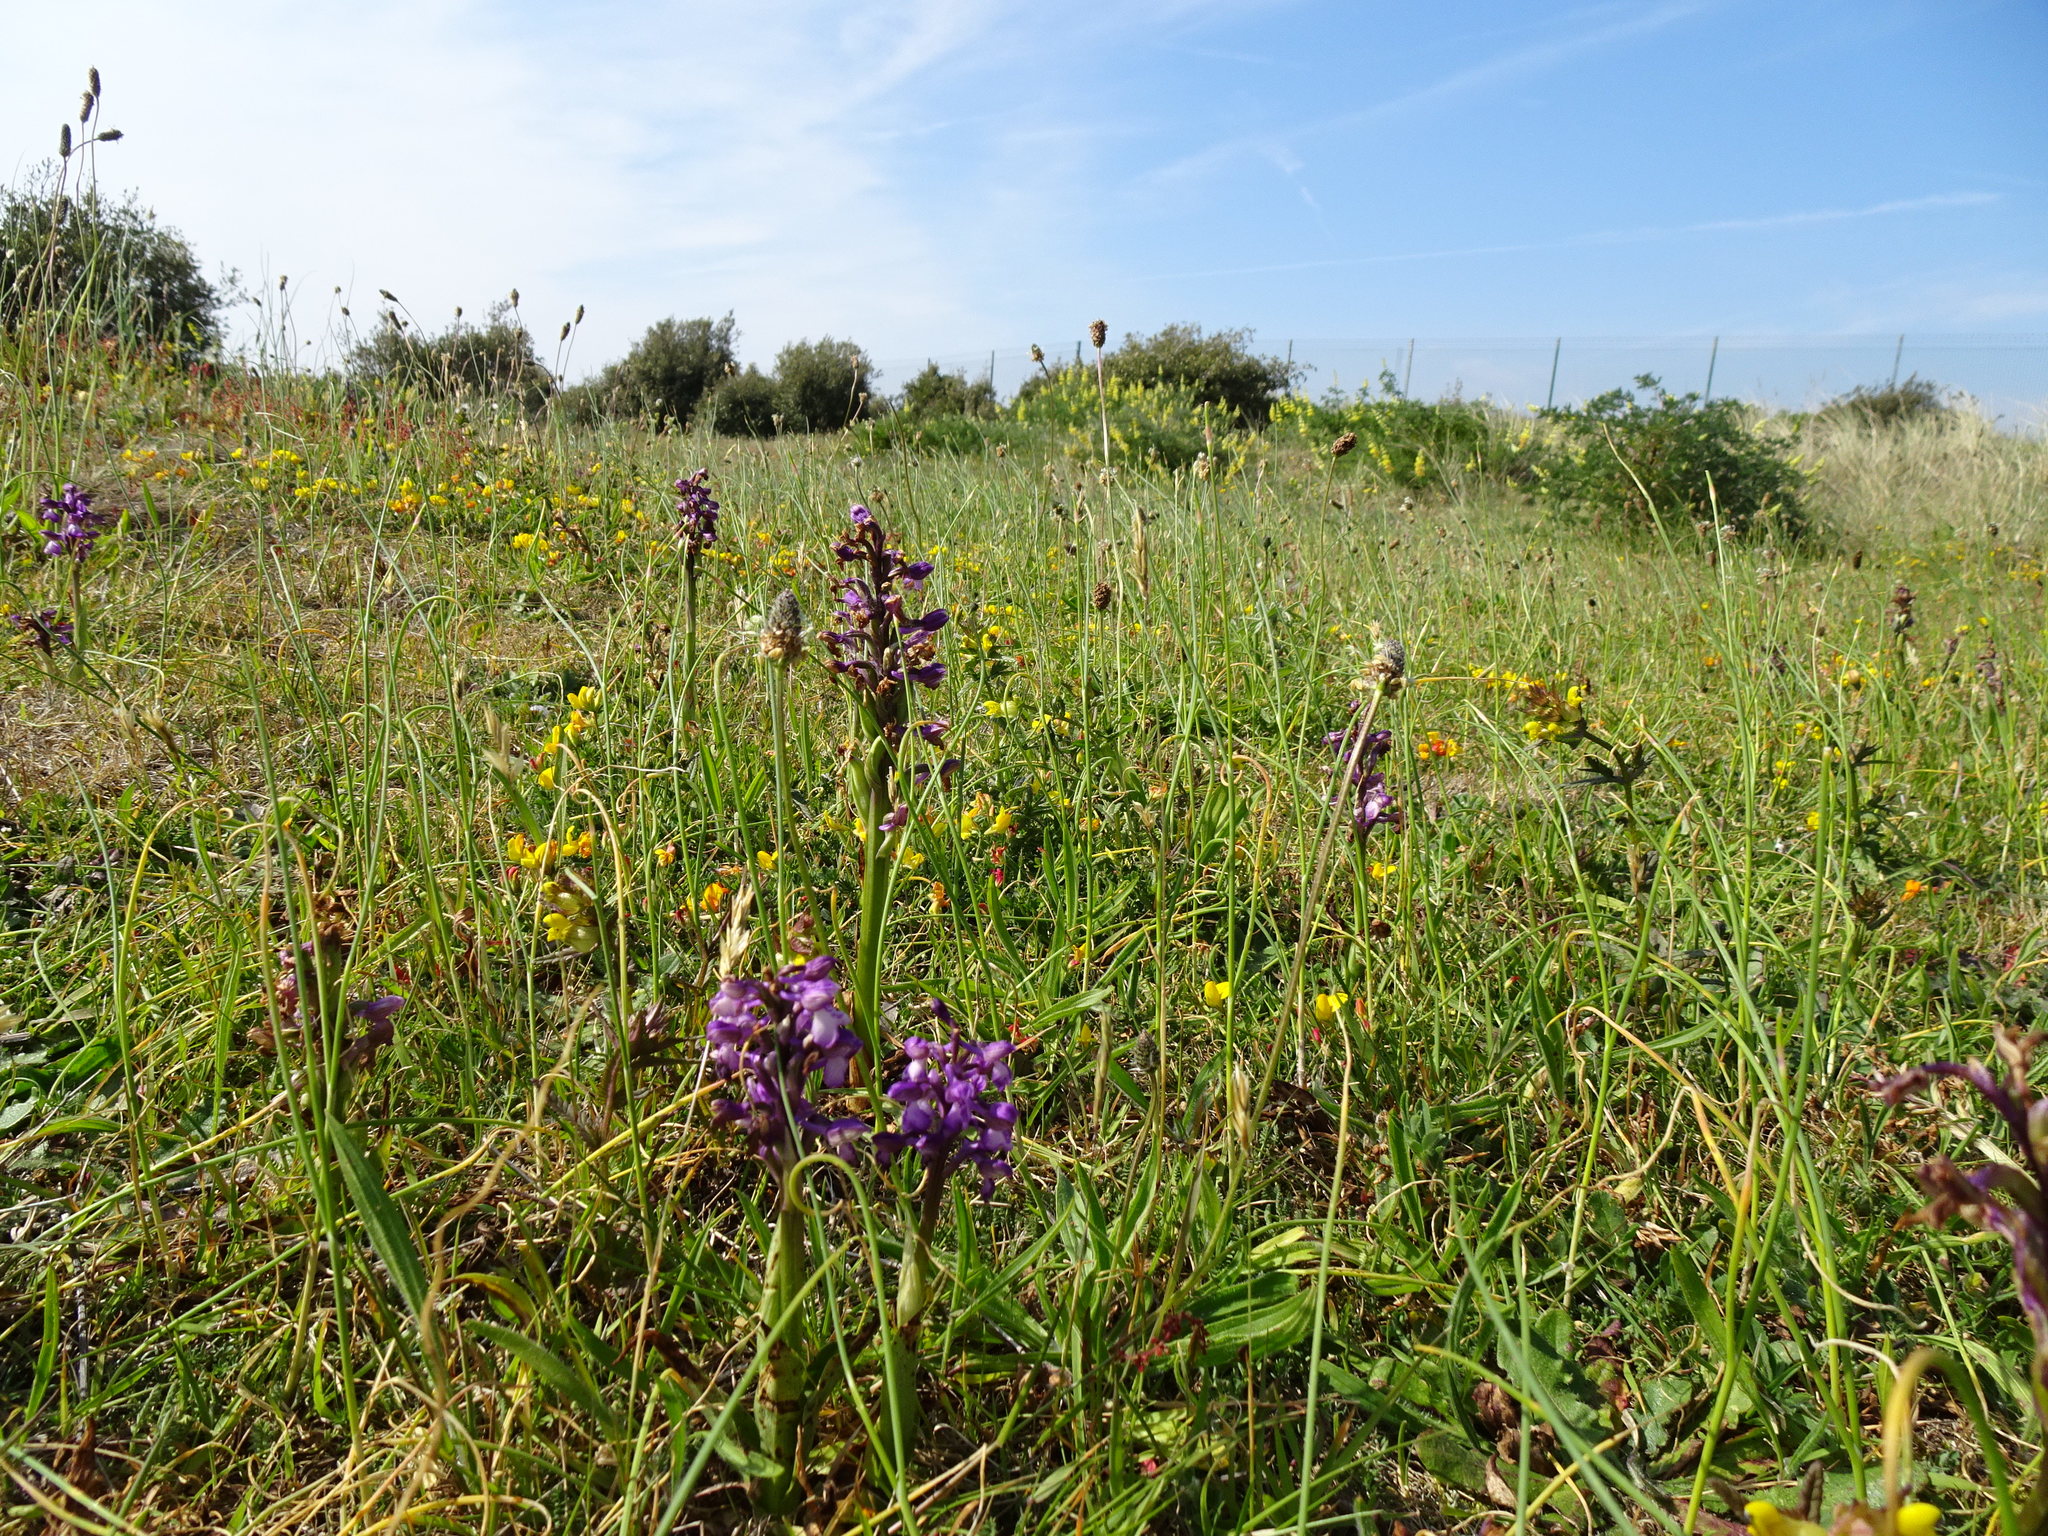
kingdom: Plantae
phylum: Tracheophyta
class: Liliopsida
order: Asparagales
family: Orchidaceae
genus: Anacamptis
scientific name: Anacamptis morio
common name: Green-winged orchid
